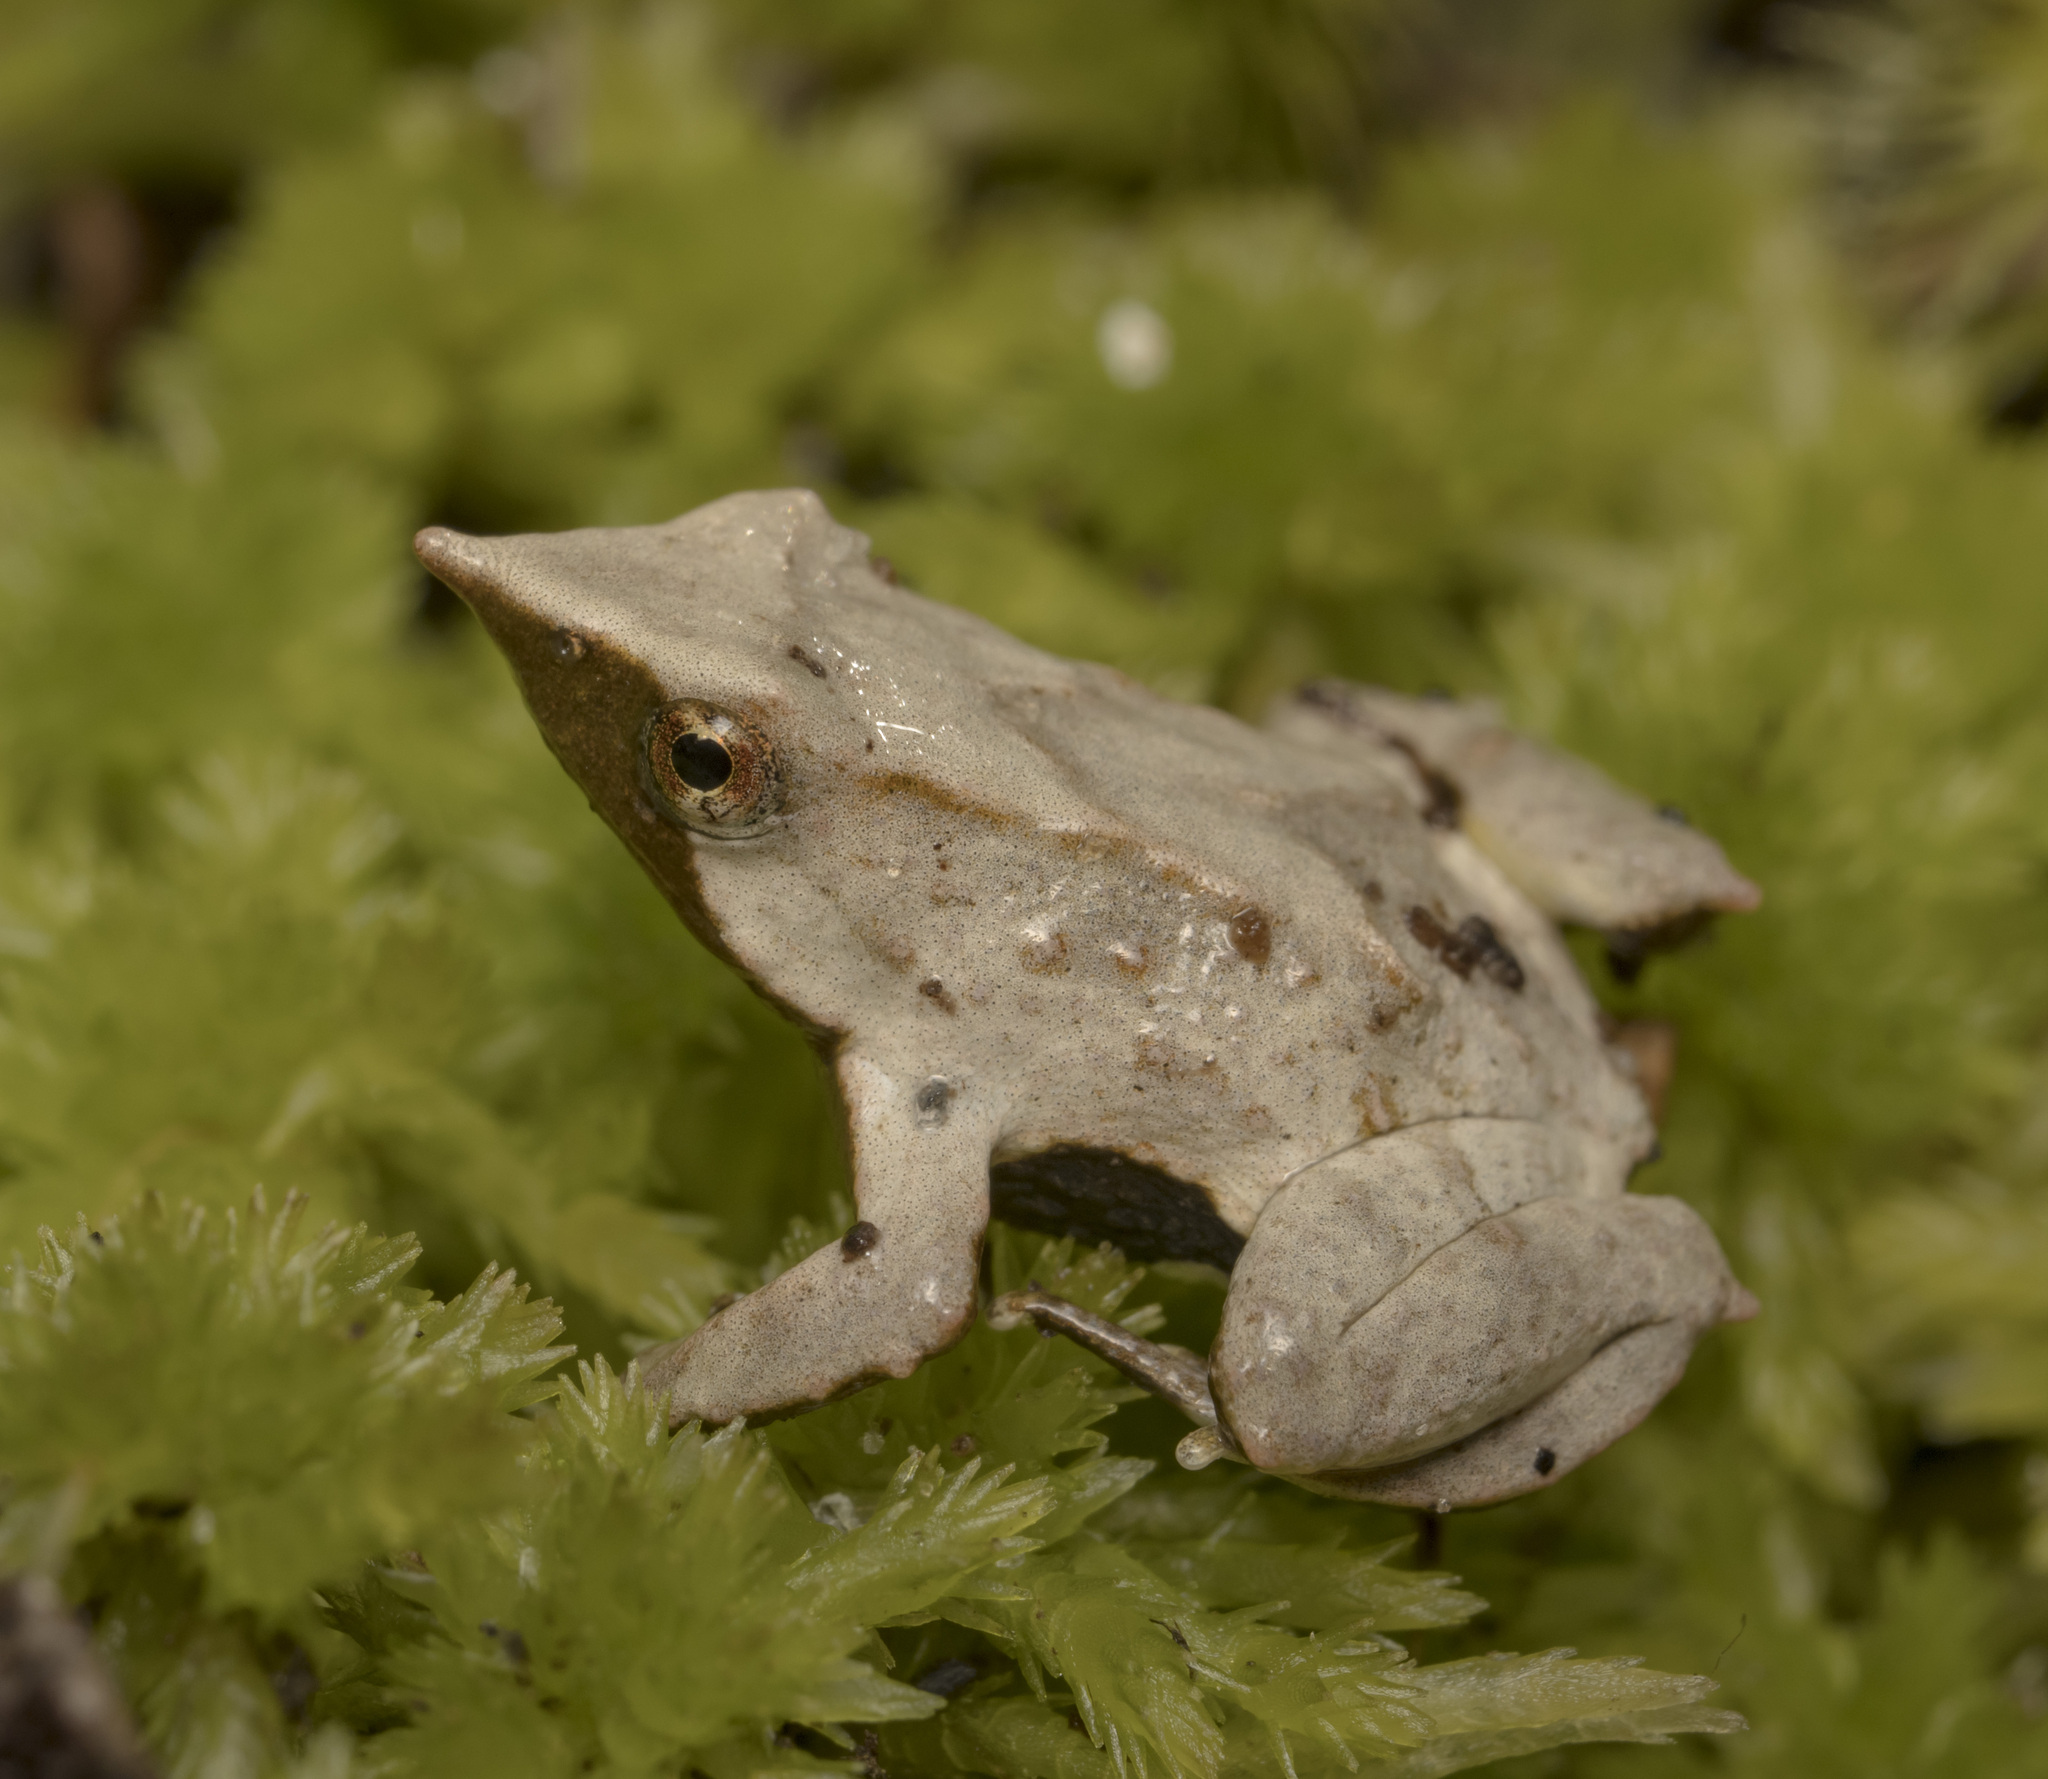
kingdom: Animalia
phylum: Chordata
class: Amphibia
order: Anura
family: Rhinodermatidae
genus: Rhinoderma
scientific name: Rhinoderma darwinii
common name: Darwin's frog
